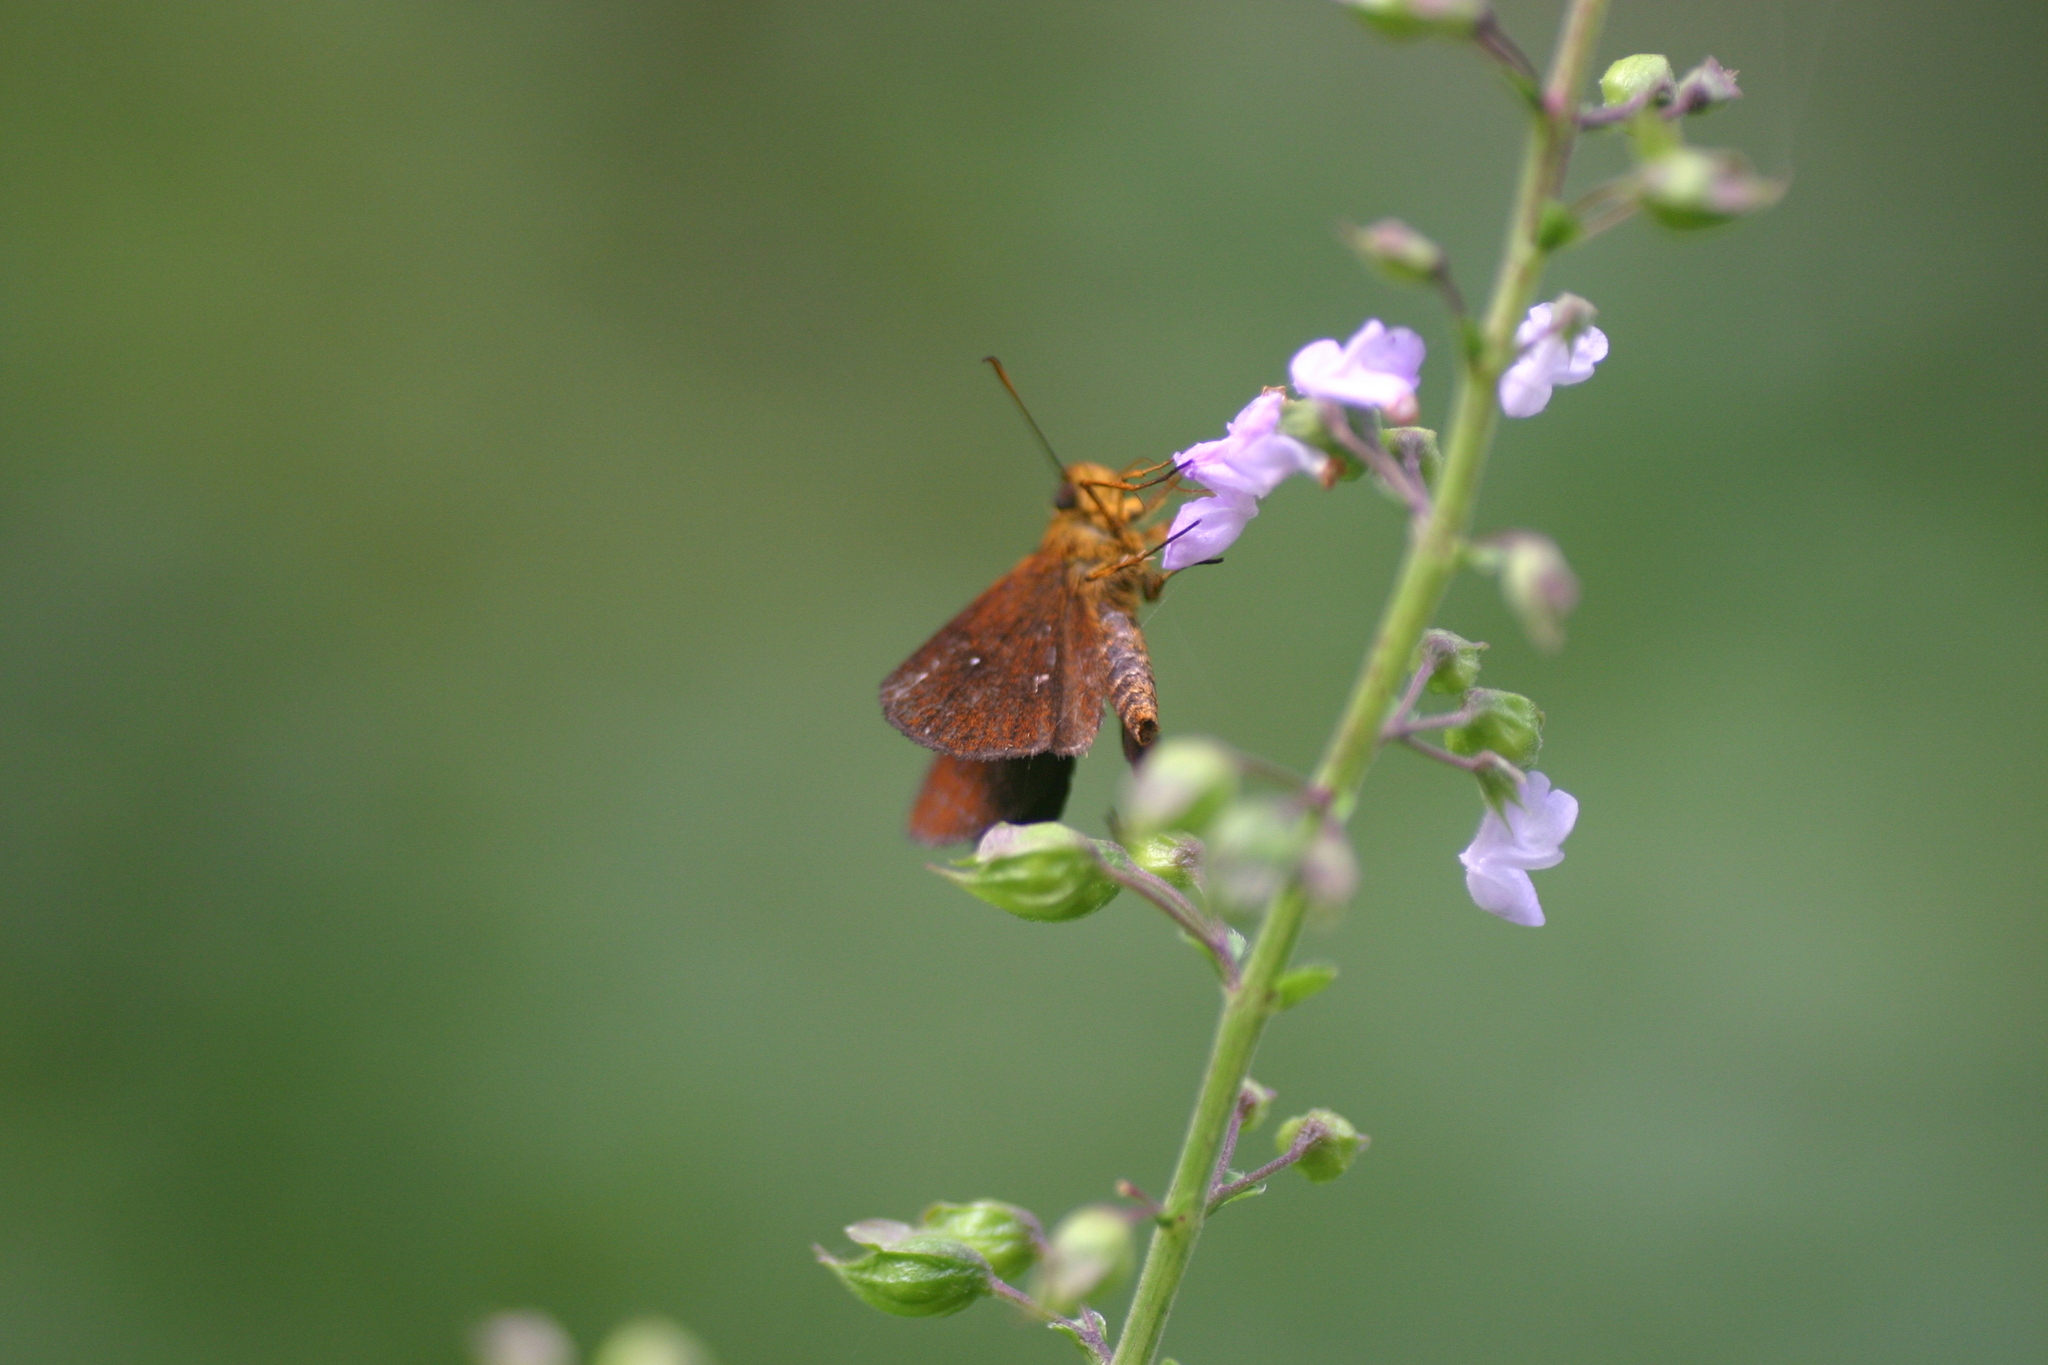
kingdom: Animalia
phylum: Arthropoda
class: Insecta
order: Lepidoptera
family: Hesperiidae
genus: Iambrix
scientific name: Iambrix salsala
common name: Chestnut bob
